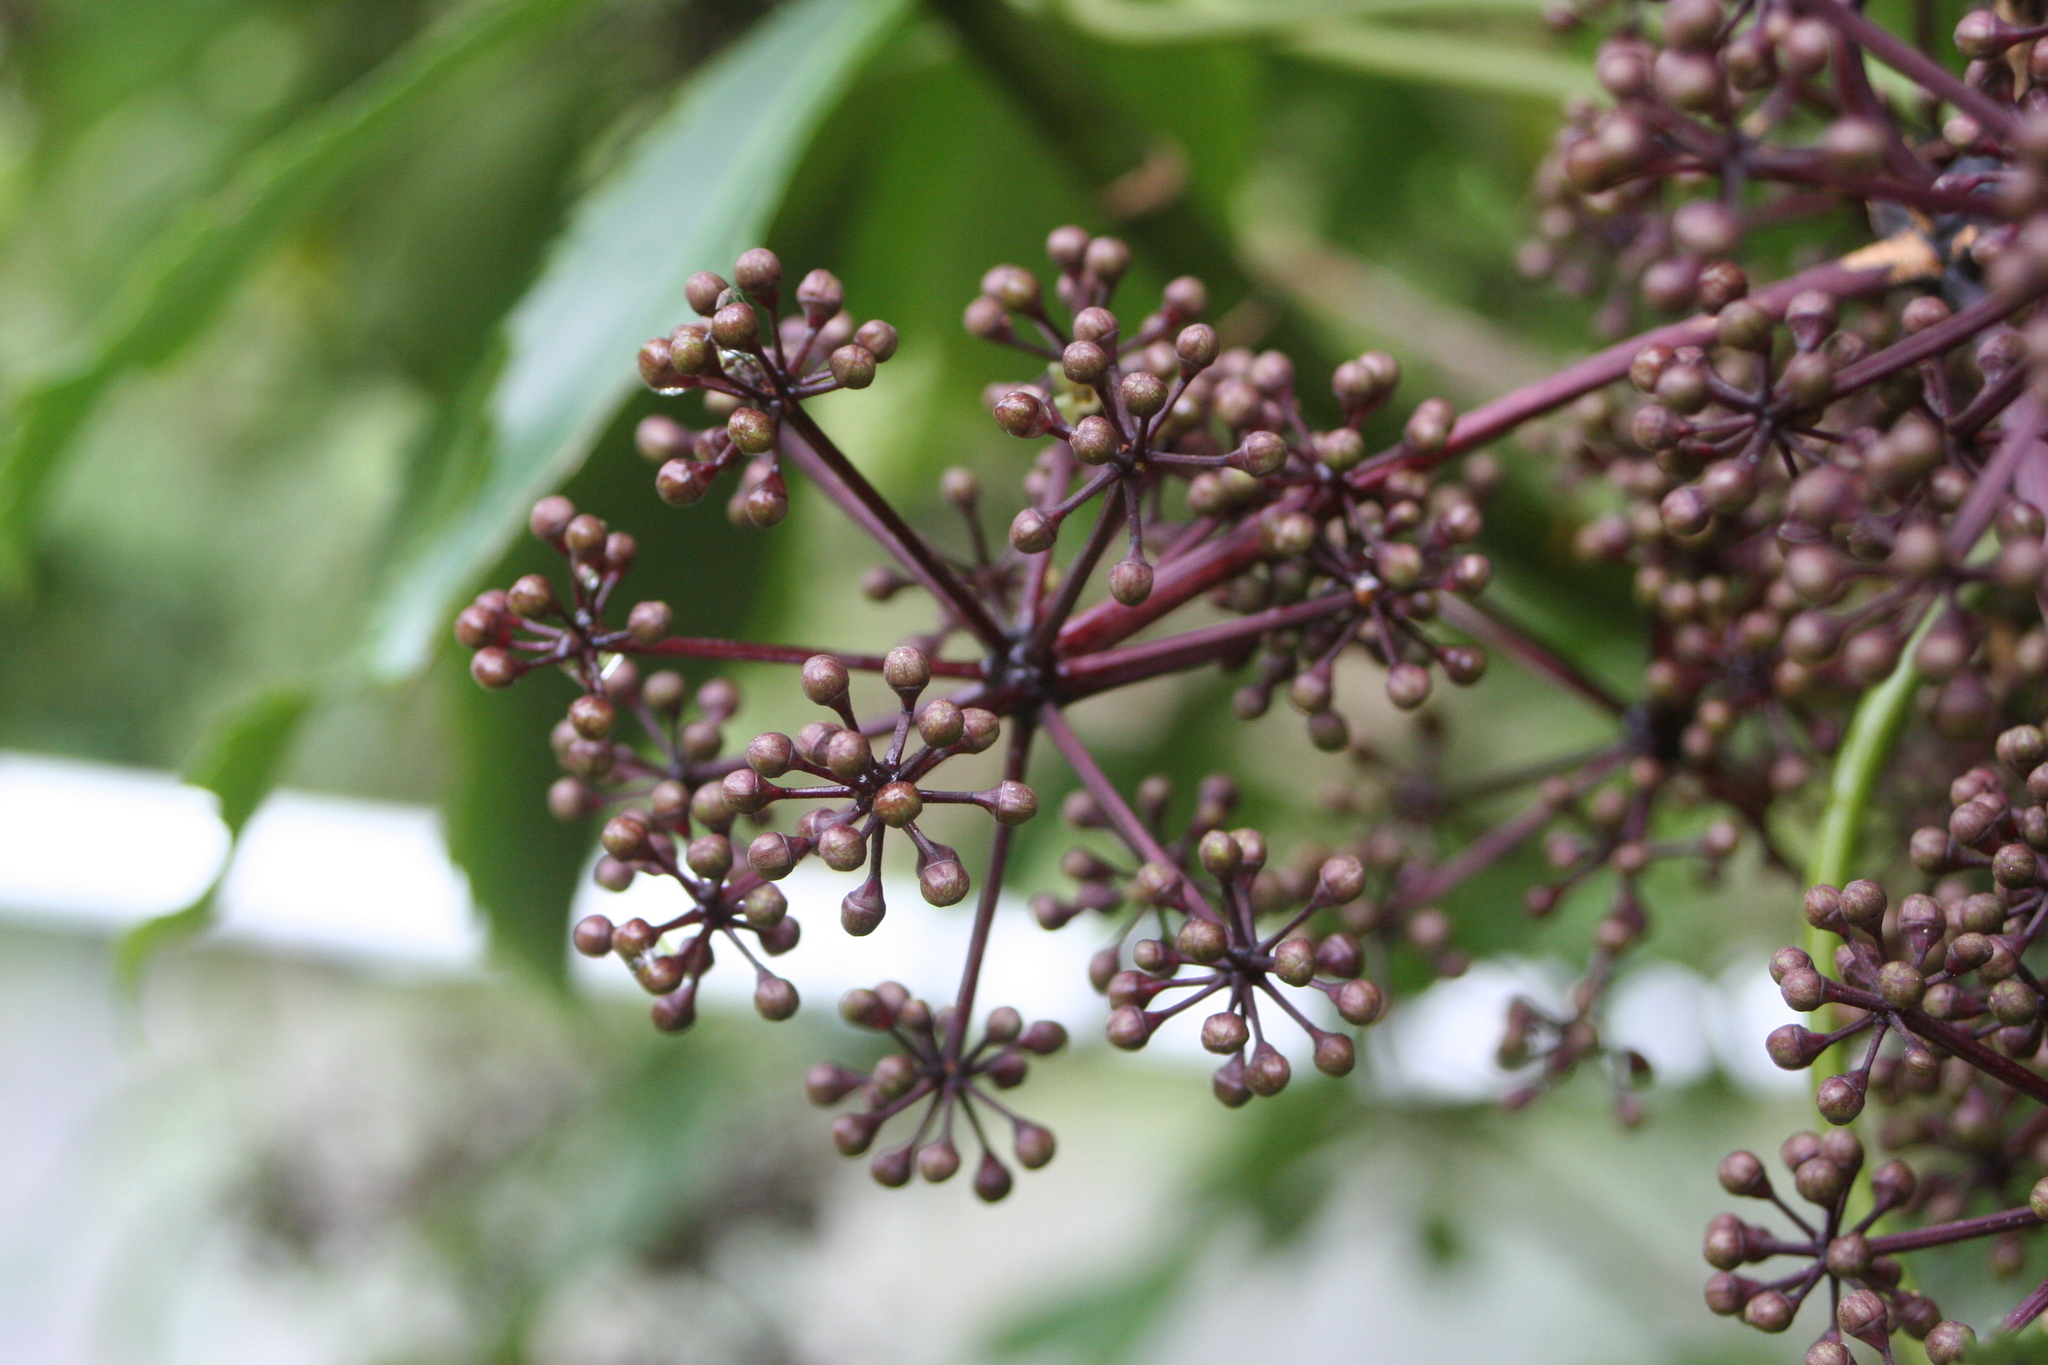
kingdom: Plantae
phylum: Tracheophyta
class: Magnoliopsida
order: Apiales
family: Araliaceae
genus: Pseudopanax
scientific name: Pseudopanax
